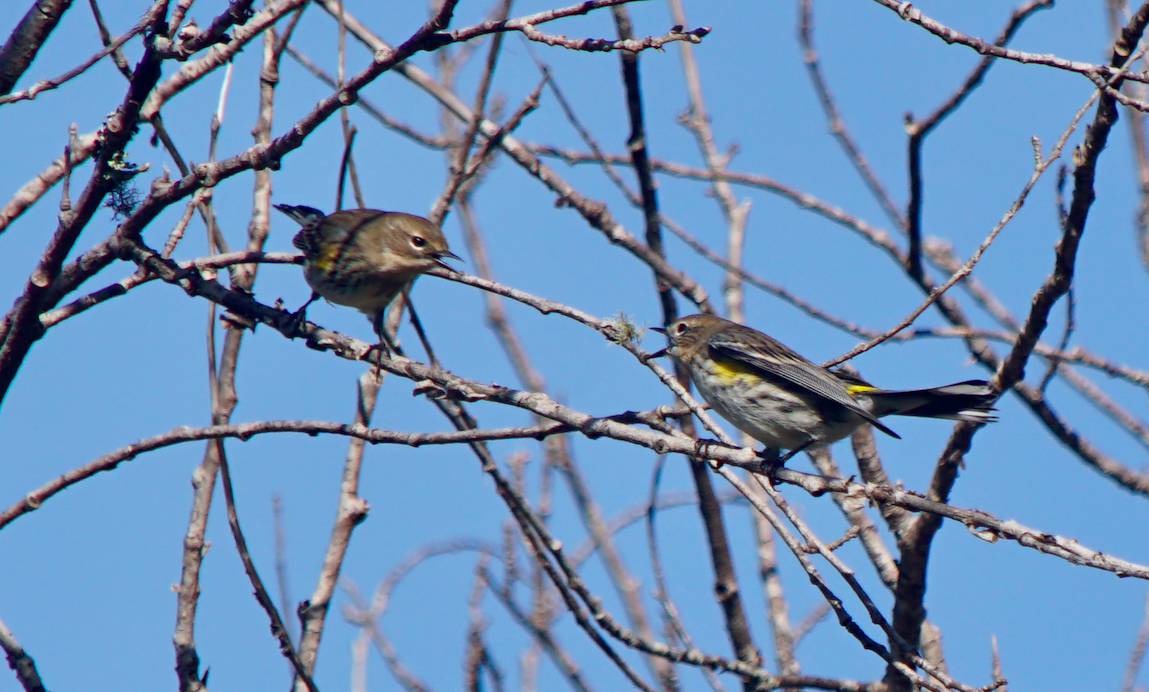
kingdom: Animalia
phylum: Chordata
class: Aves
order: Passeriformes
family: Parulidae
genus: Setophaga
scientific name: Setophaga coronata
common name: Myrtle warbler
